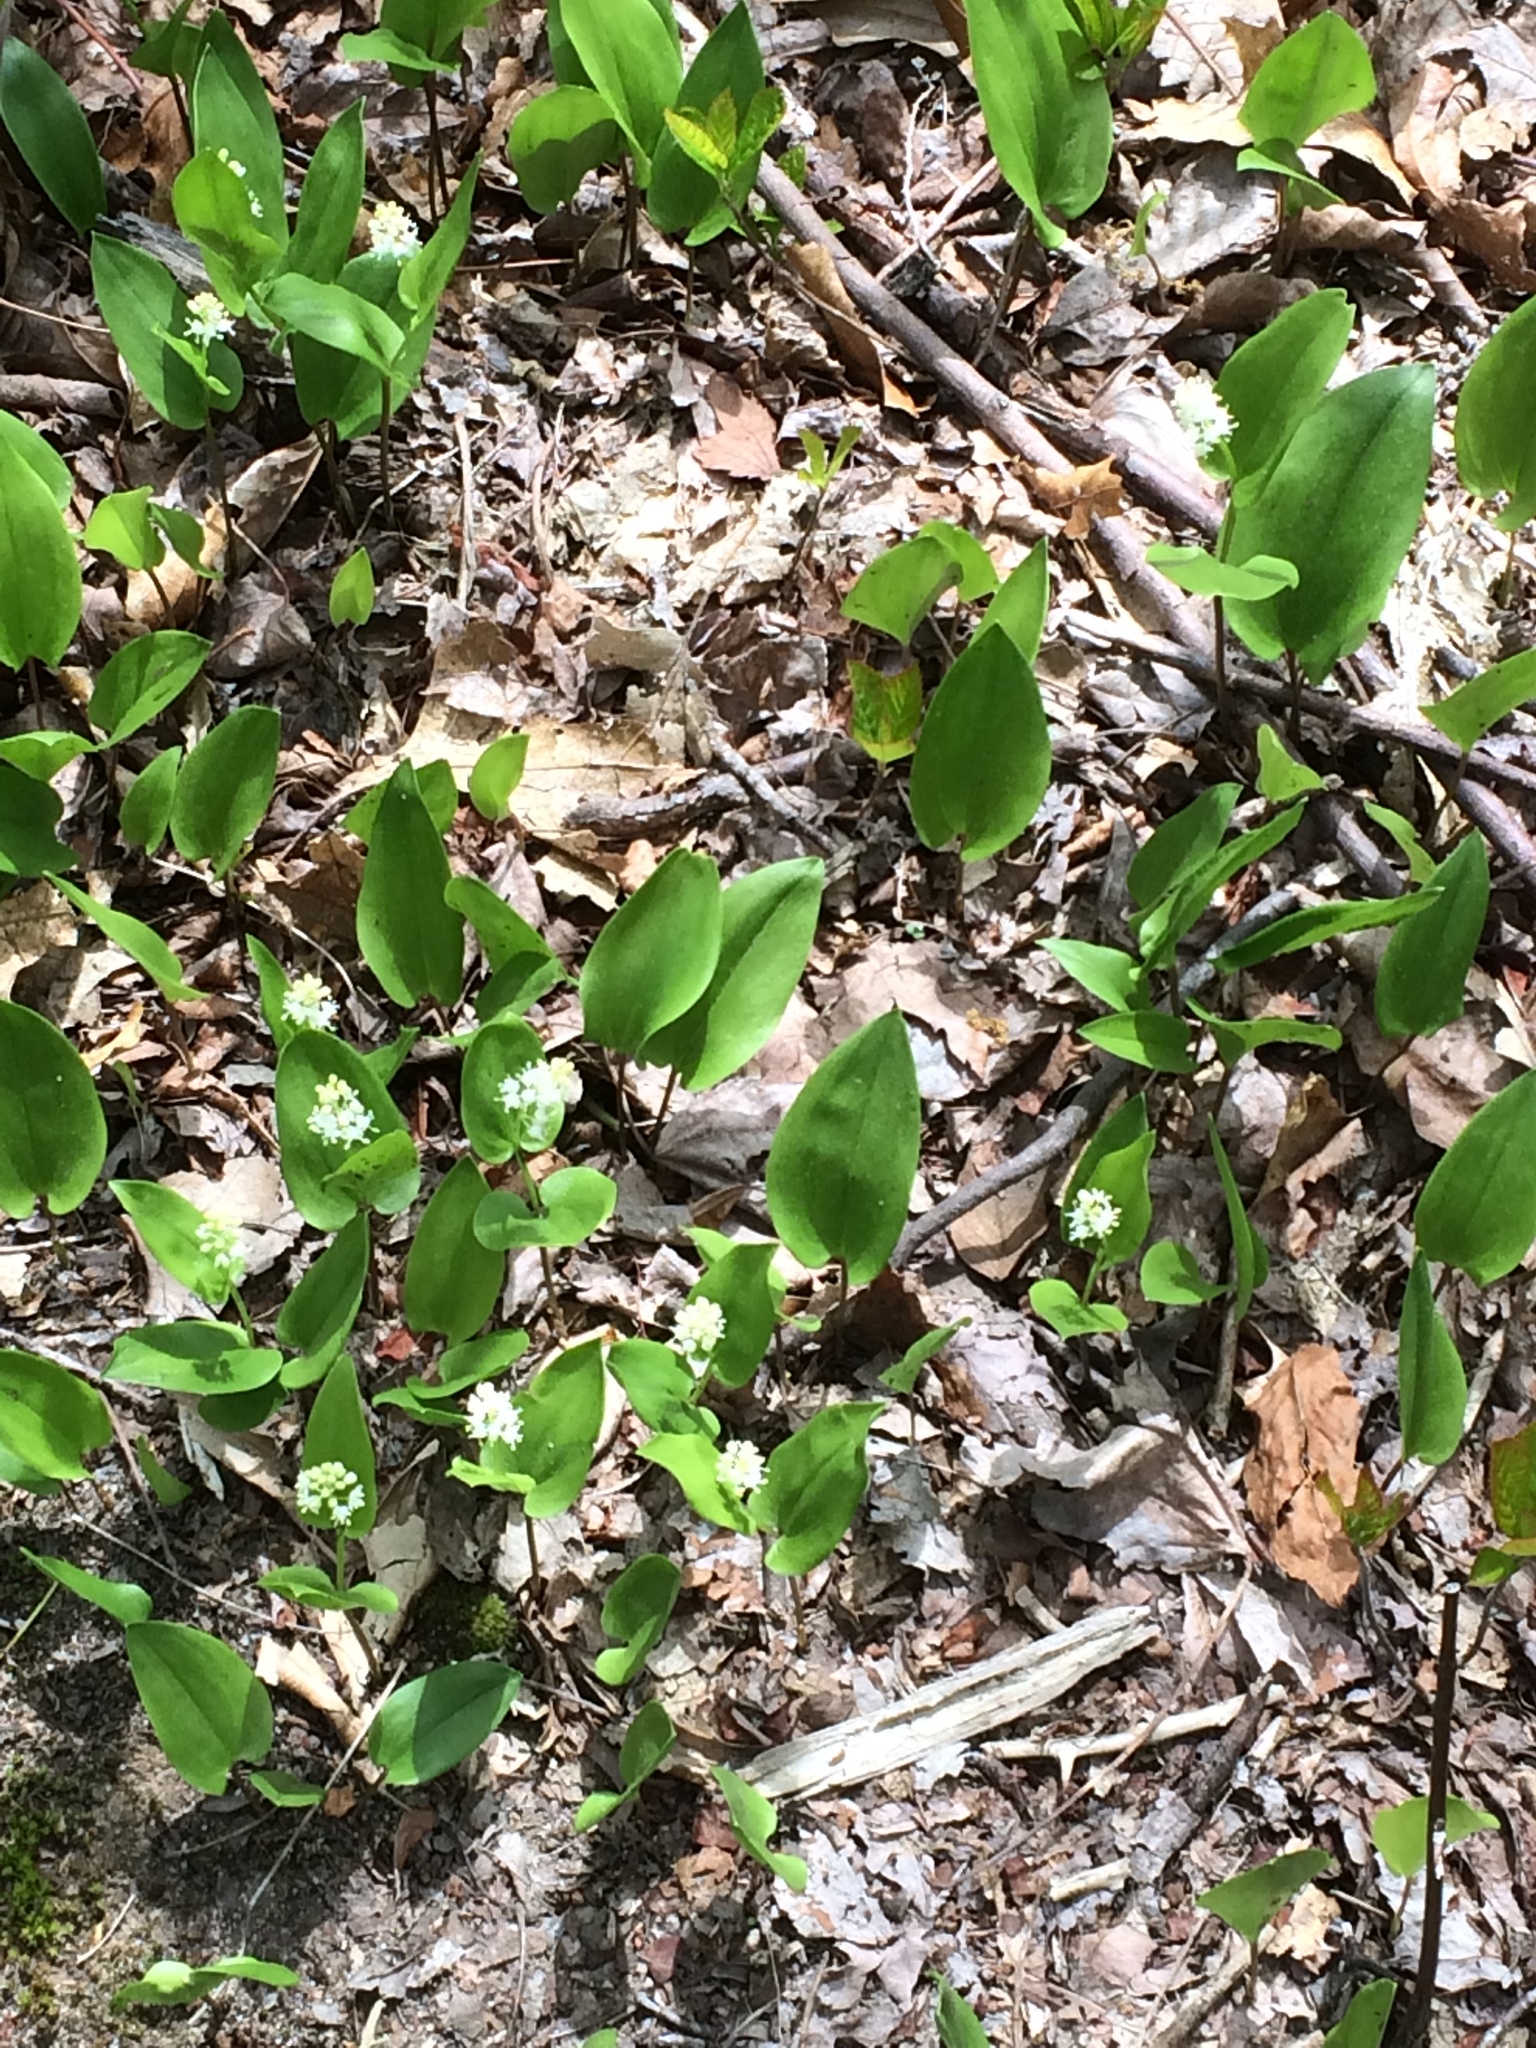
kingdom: Plantae
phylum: Tracheophyta
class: Liliopsida
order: Asparagales
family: Asparagaceae
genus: Maianthemum
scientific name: Maianthemum canadense
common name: False lily-of-the-valley
